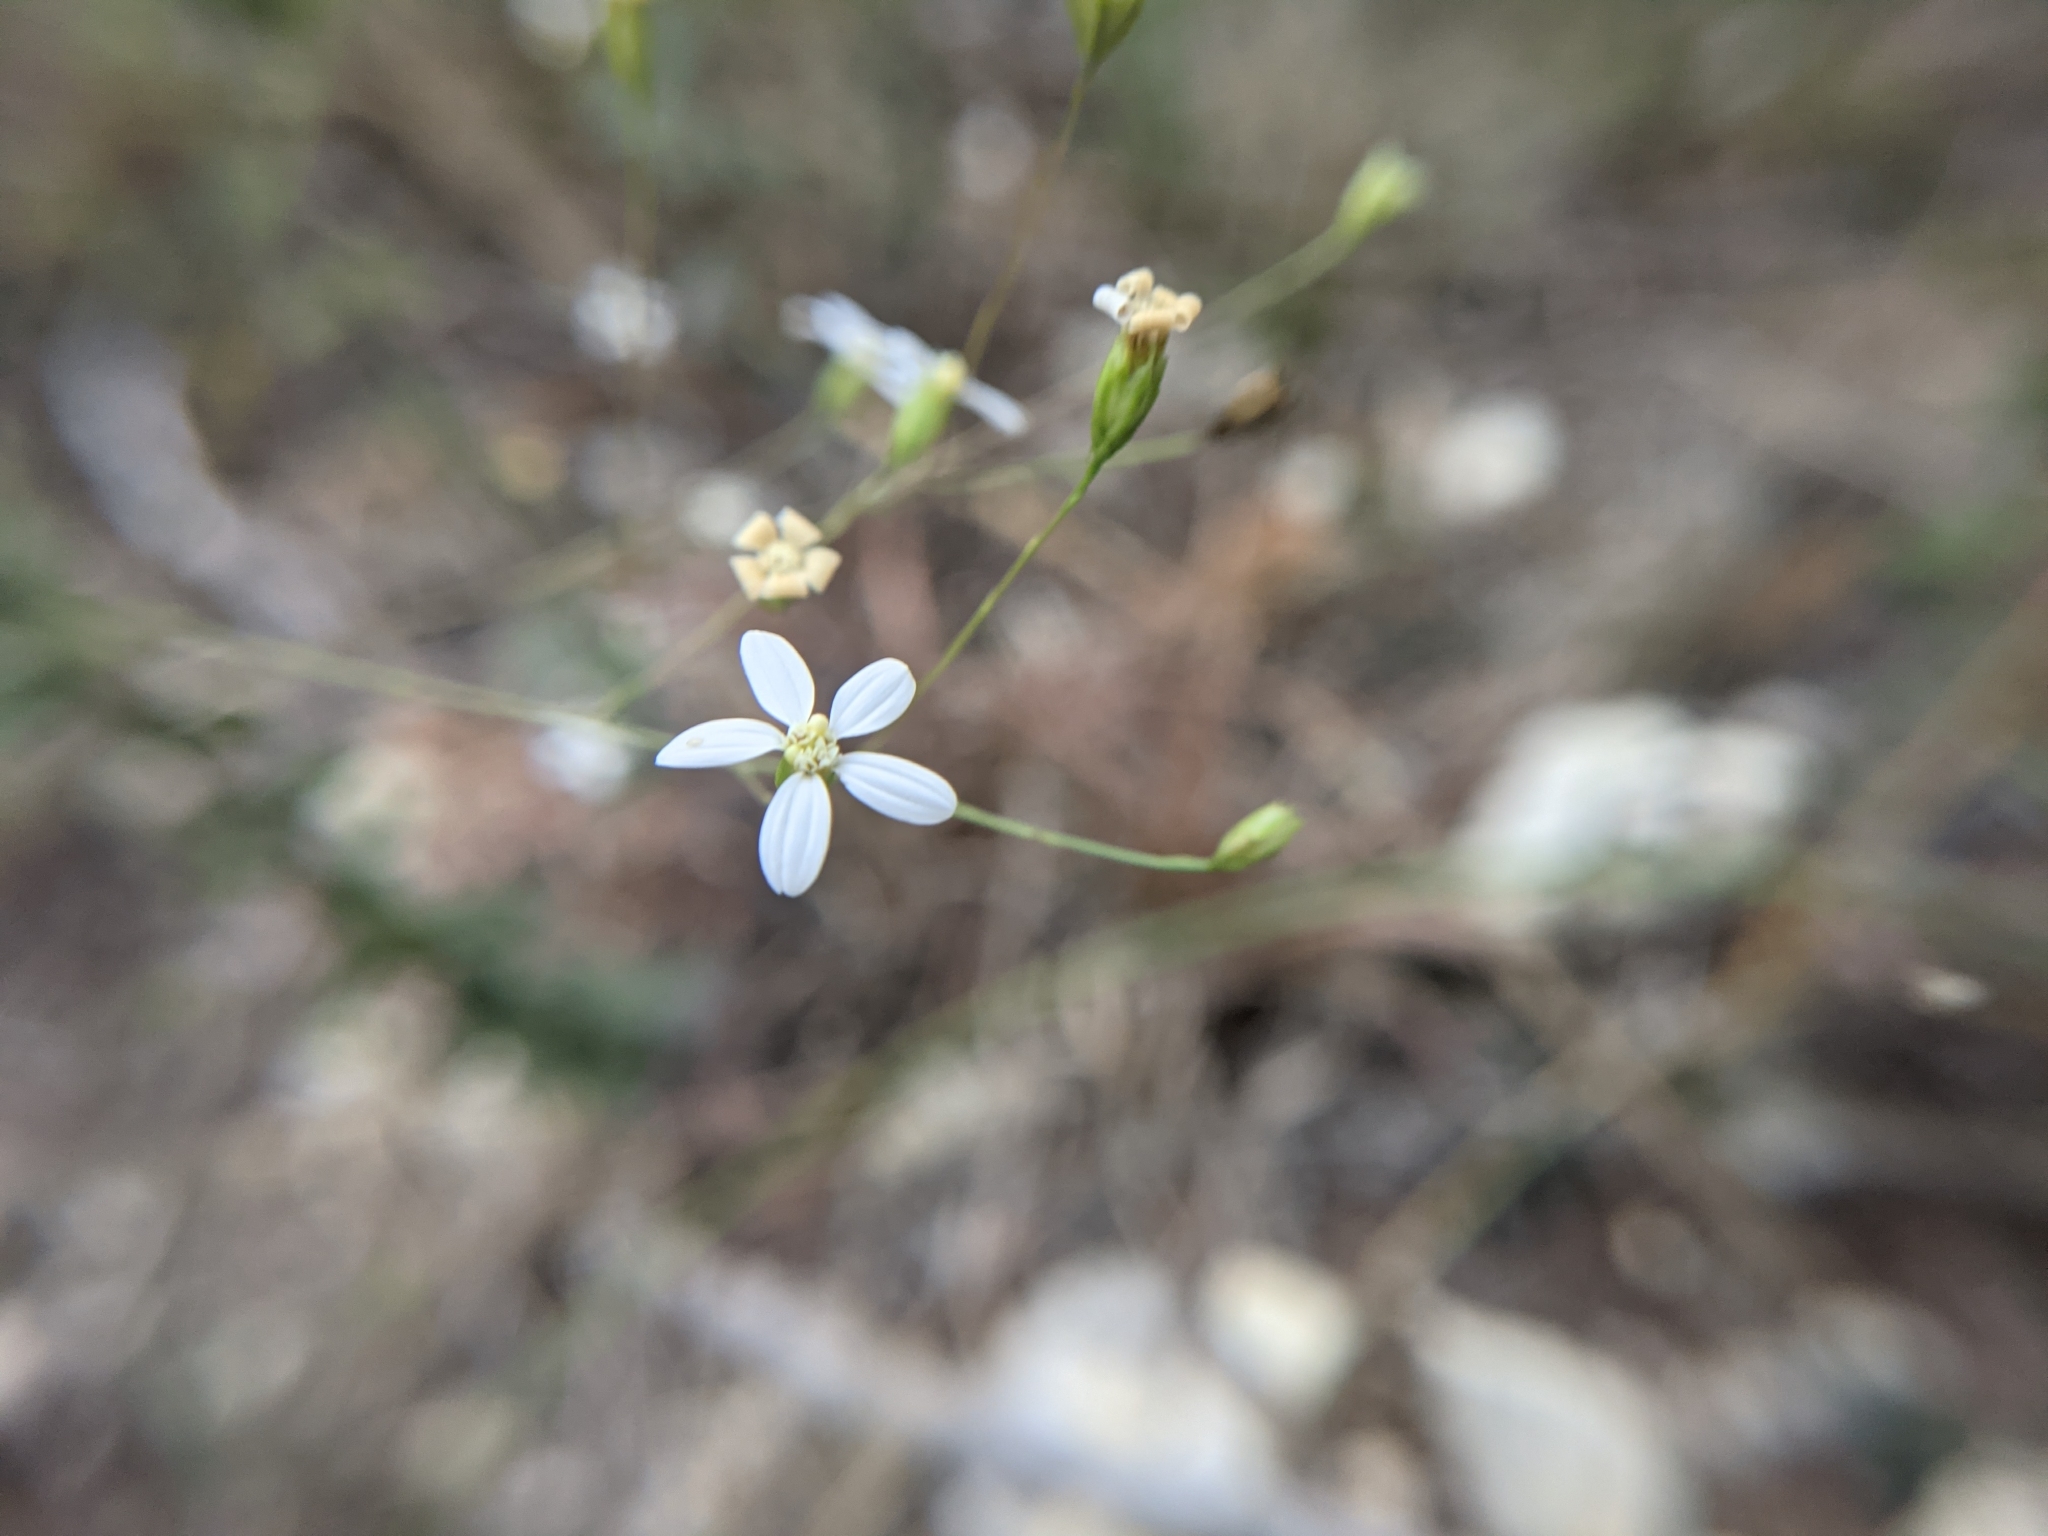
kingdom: Plantae
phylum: Tracheophyta
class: Magnoliopsida
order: Asterales
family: Asteraceae
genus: Chaetopappa
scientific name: Chaetopappa effusa
